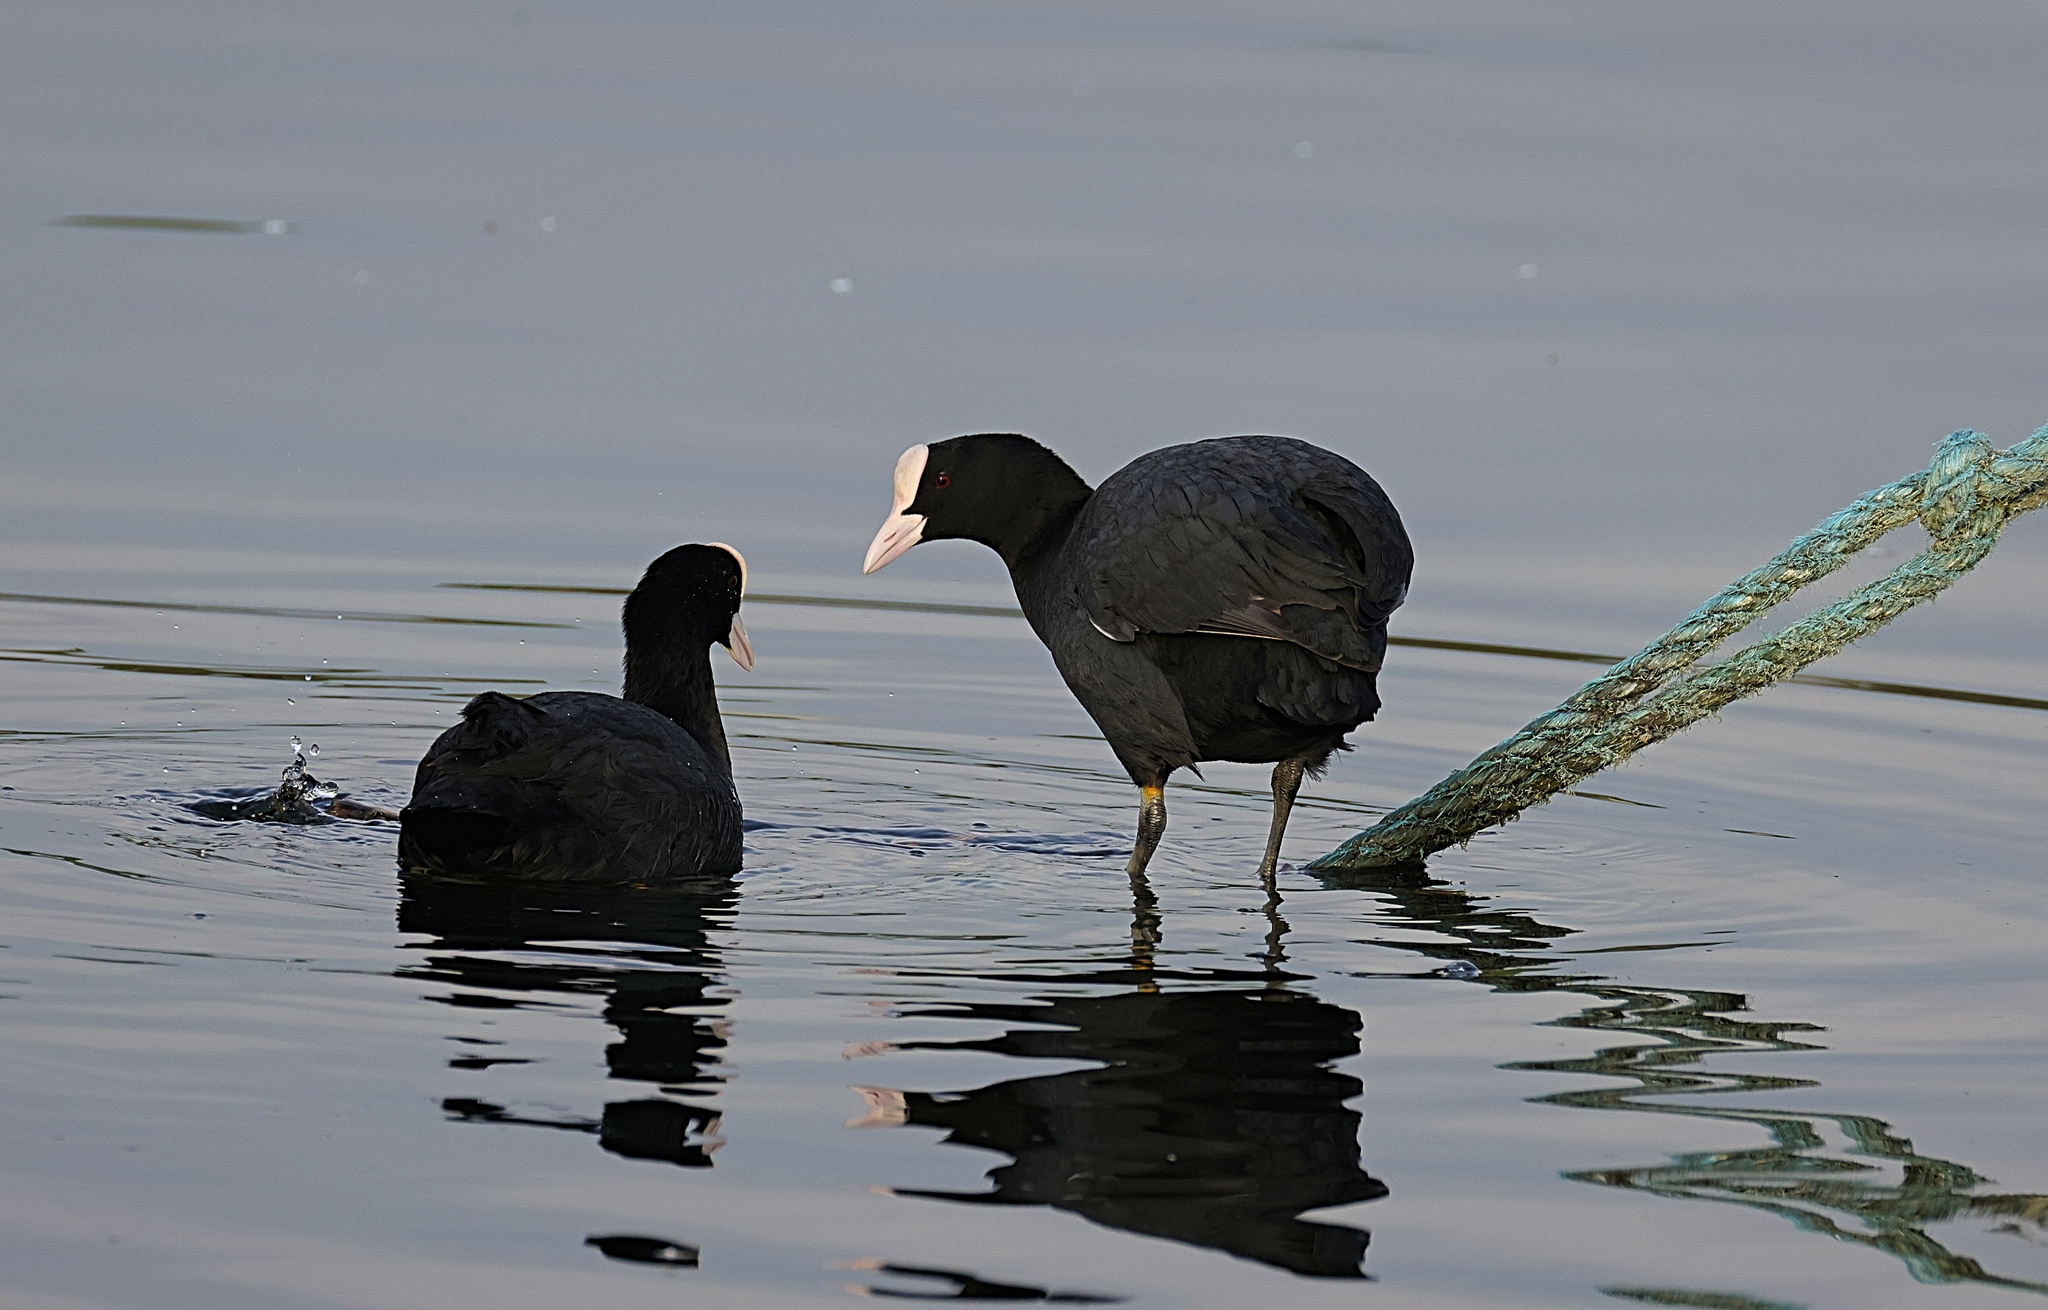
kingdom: Animalia
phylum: Chordata
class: Aves
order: Gruiformes
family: Rallidae
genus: Fulica
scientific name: Fulica atra
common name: Eurasian coot
